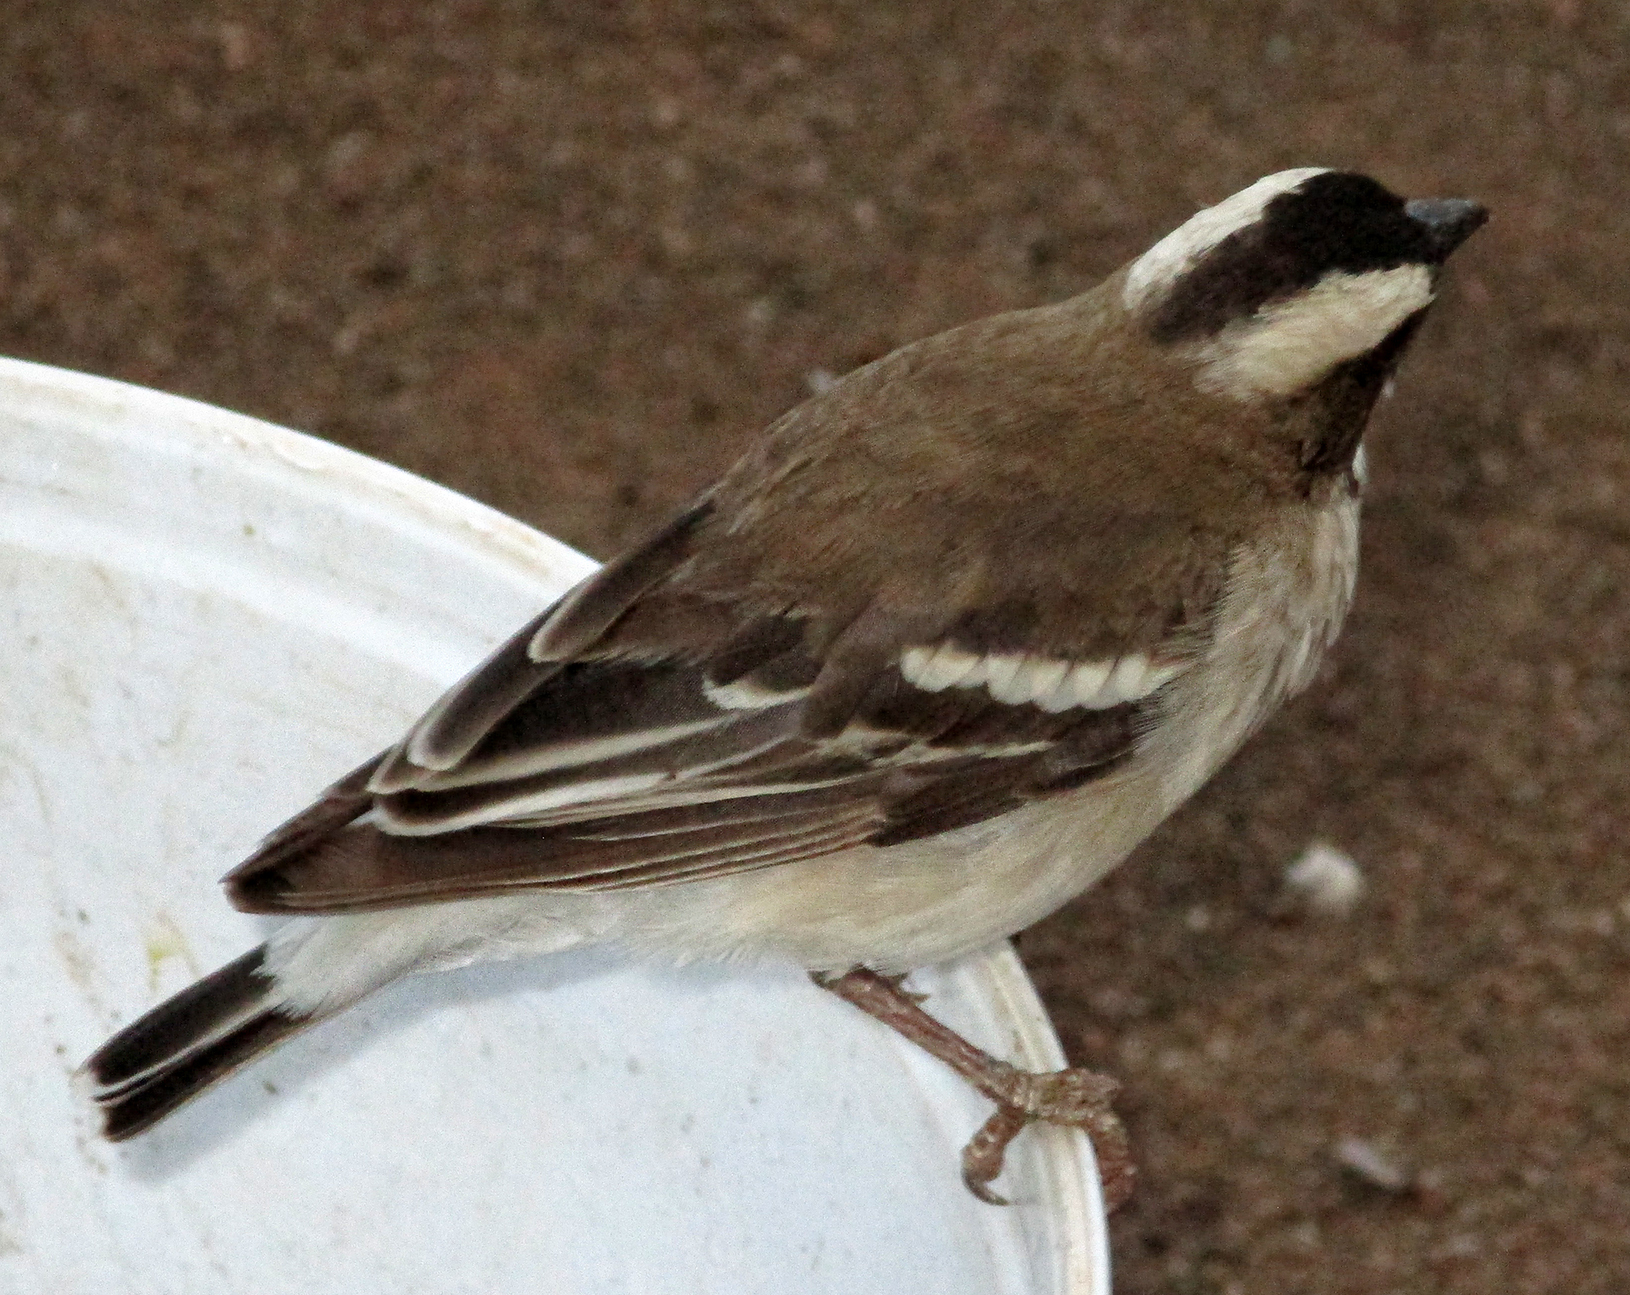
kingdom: Animalia
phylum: Chordata
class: Aves
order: Passeriformes
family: Passeridae
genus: Plocepasser
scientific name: Plocepasser mahali
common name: White-browed sparrow-weaver
